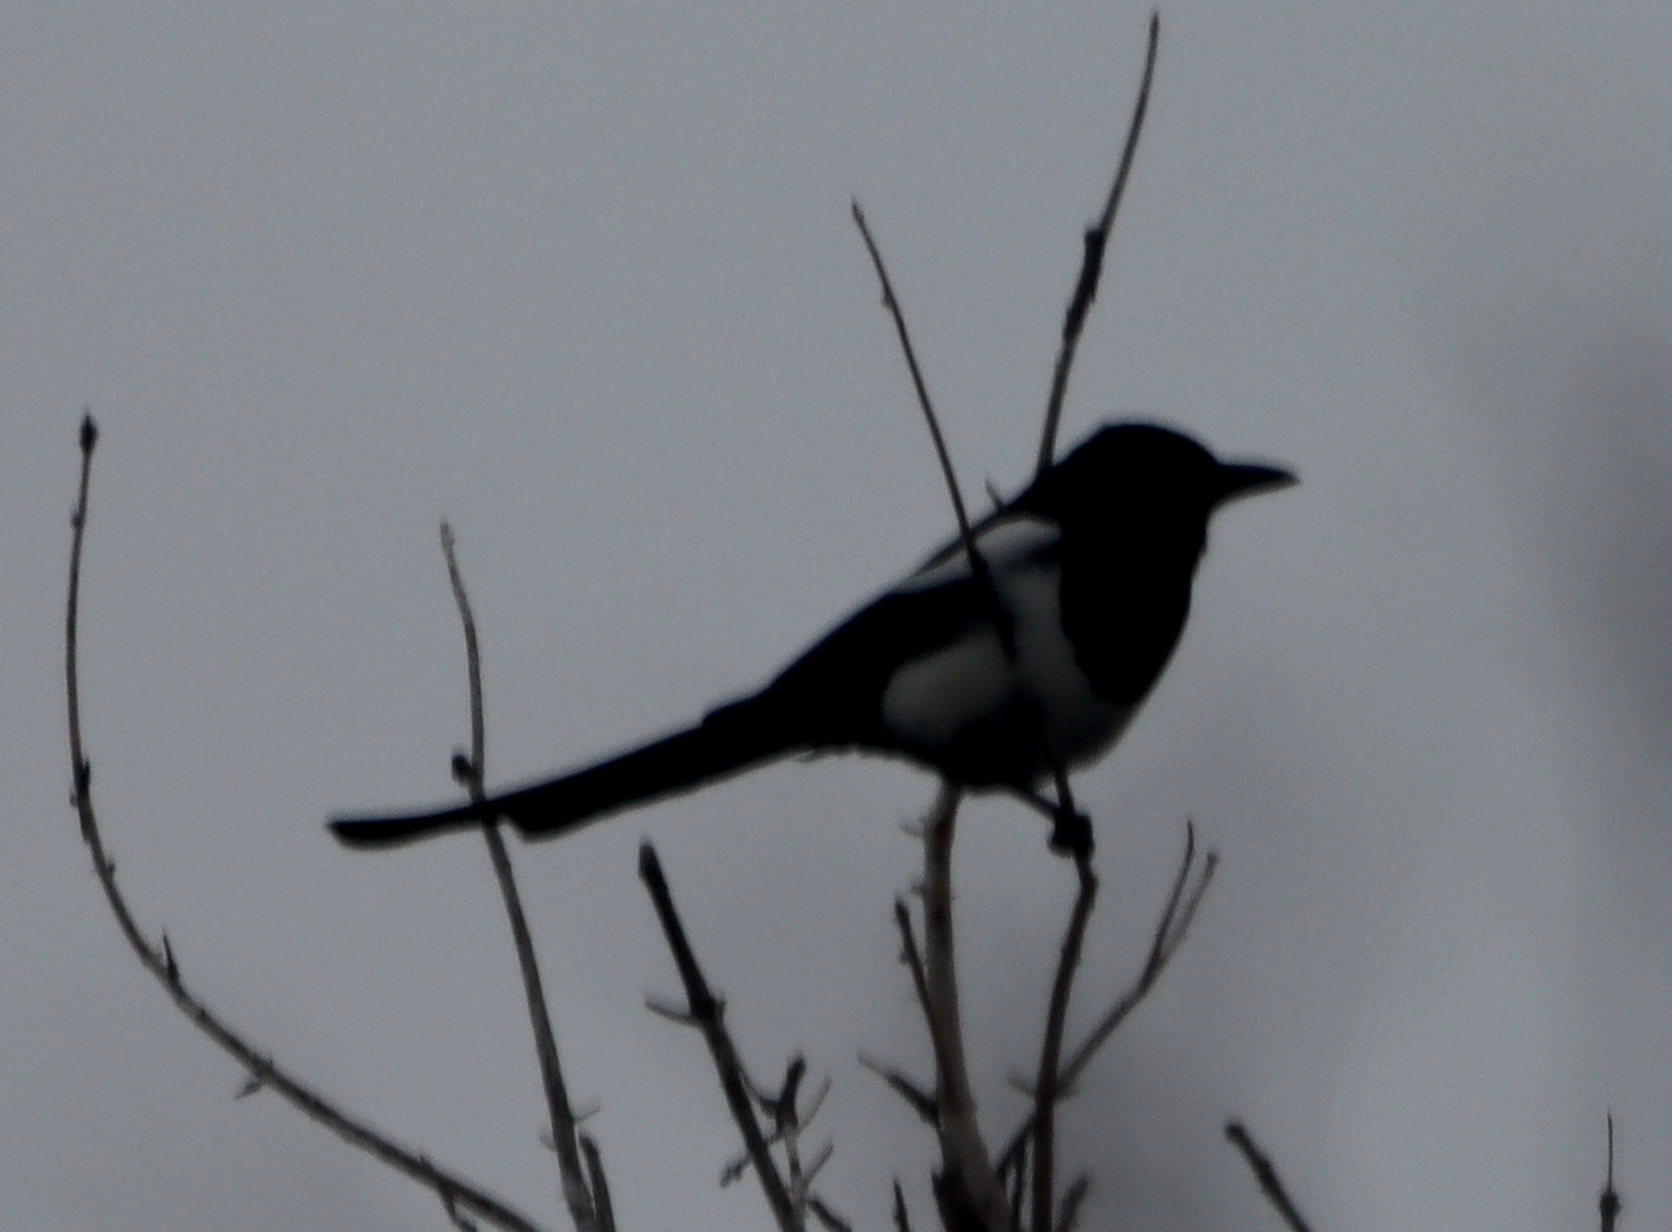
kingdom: Animalia
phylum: Chordata
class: Aves
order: Passeriformes
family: Corvidae
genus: Pica
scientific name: Pica hudsonia
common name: Black-billed magpie
